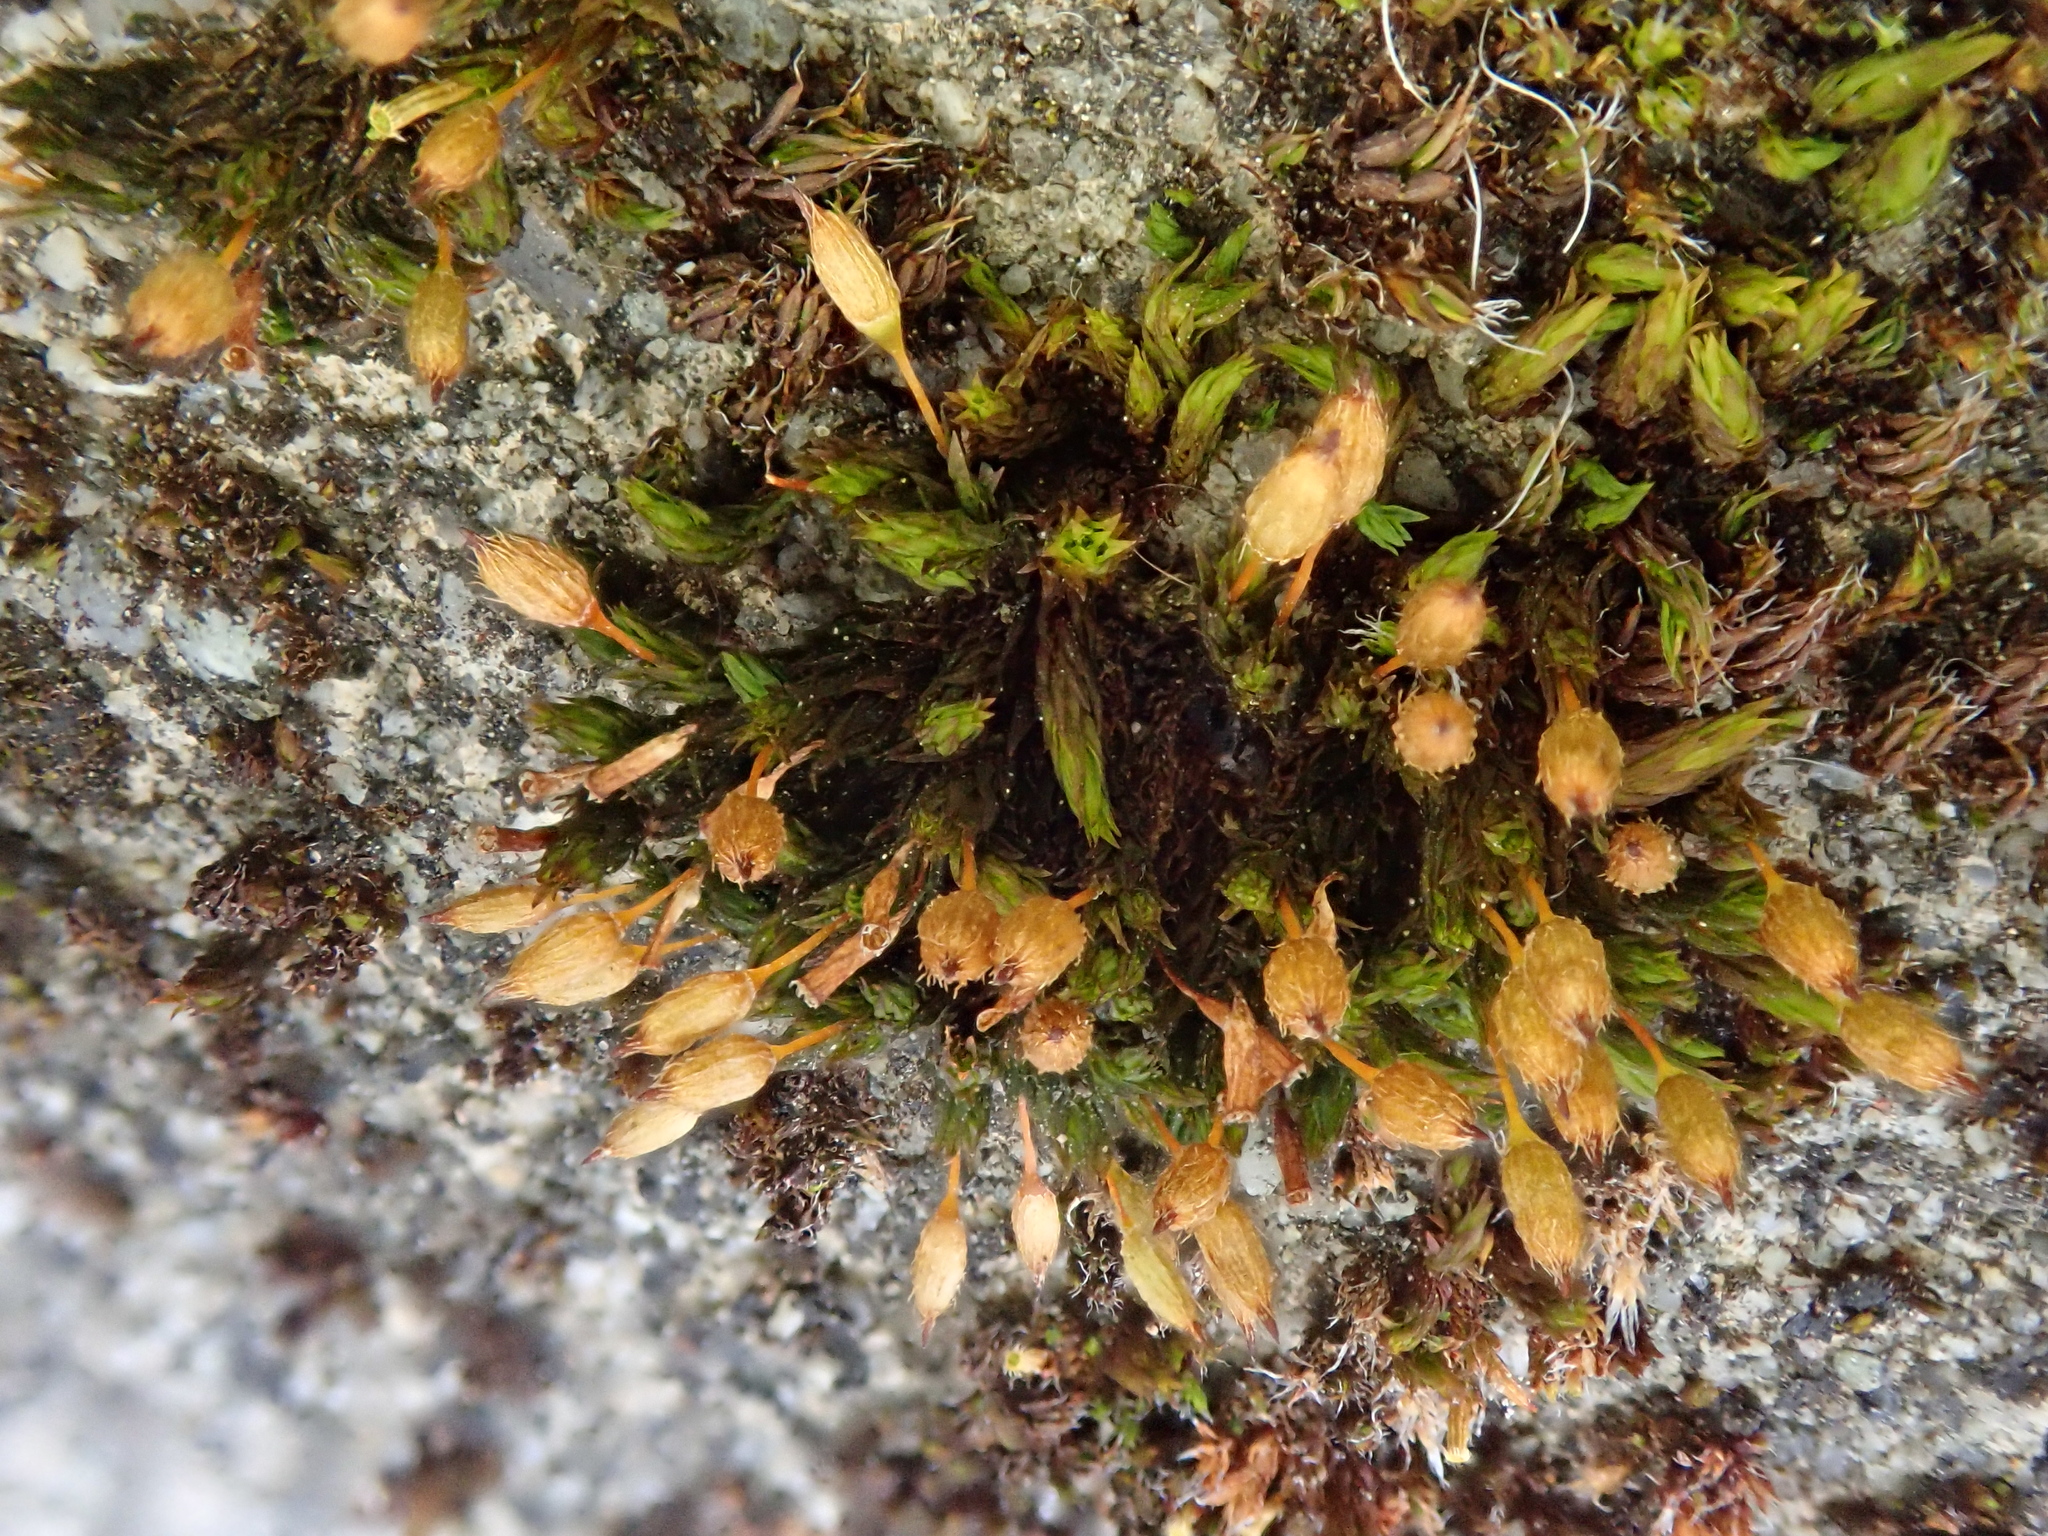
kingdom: Plantae
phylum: Bryophyta
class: Bryopsida
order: Orthotrichales
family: Orthotrichaceae
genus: Orthotrichum
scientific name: Orthotrichum anomalum
